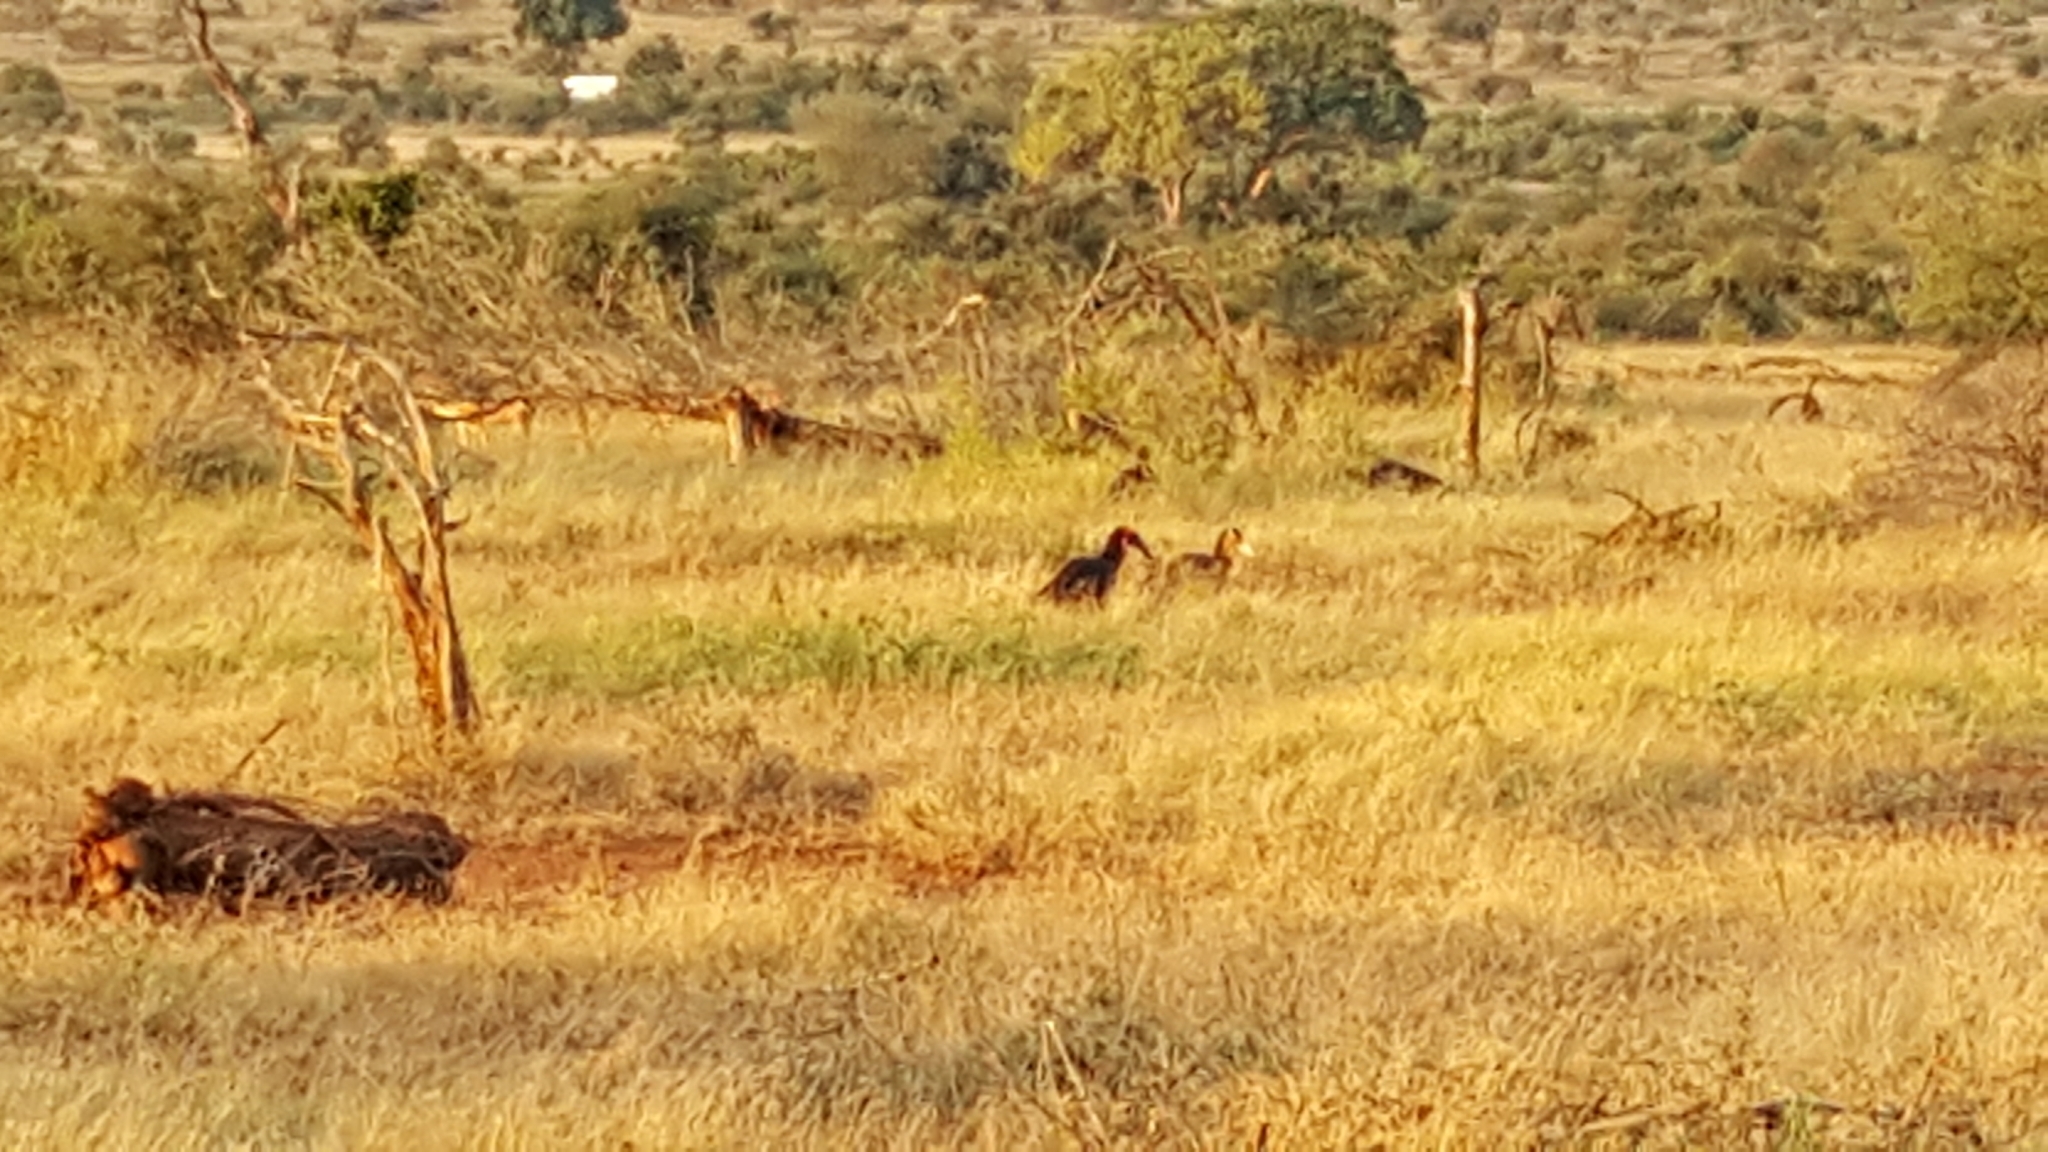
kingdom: Animalia
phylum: Chordata
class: Aves
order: Bucerotiformes
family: Bucorvidae
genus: Bucorvus
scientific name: Bucorvus leadbeateri
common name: Southern ground-hornbill
